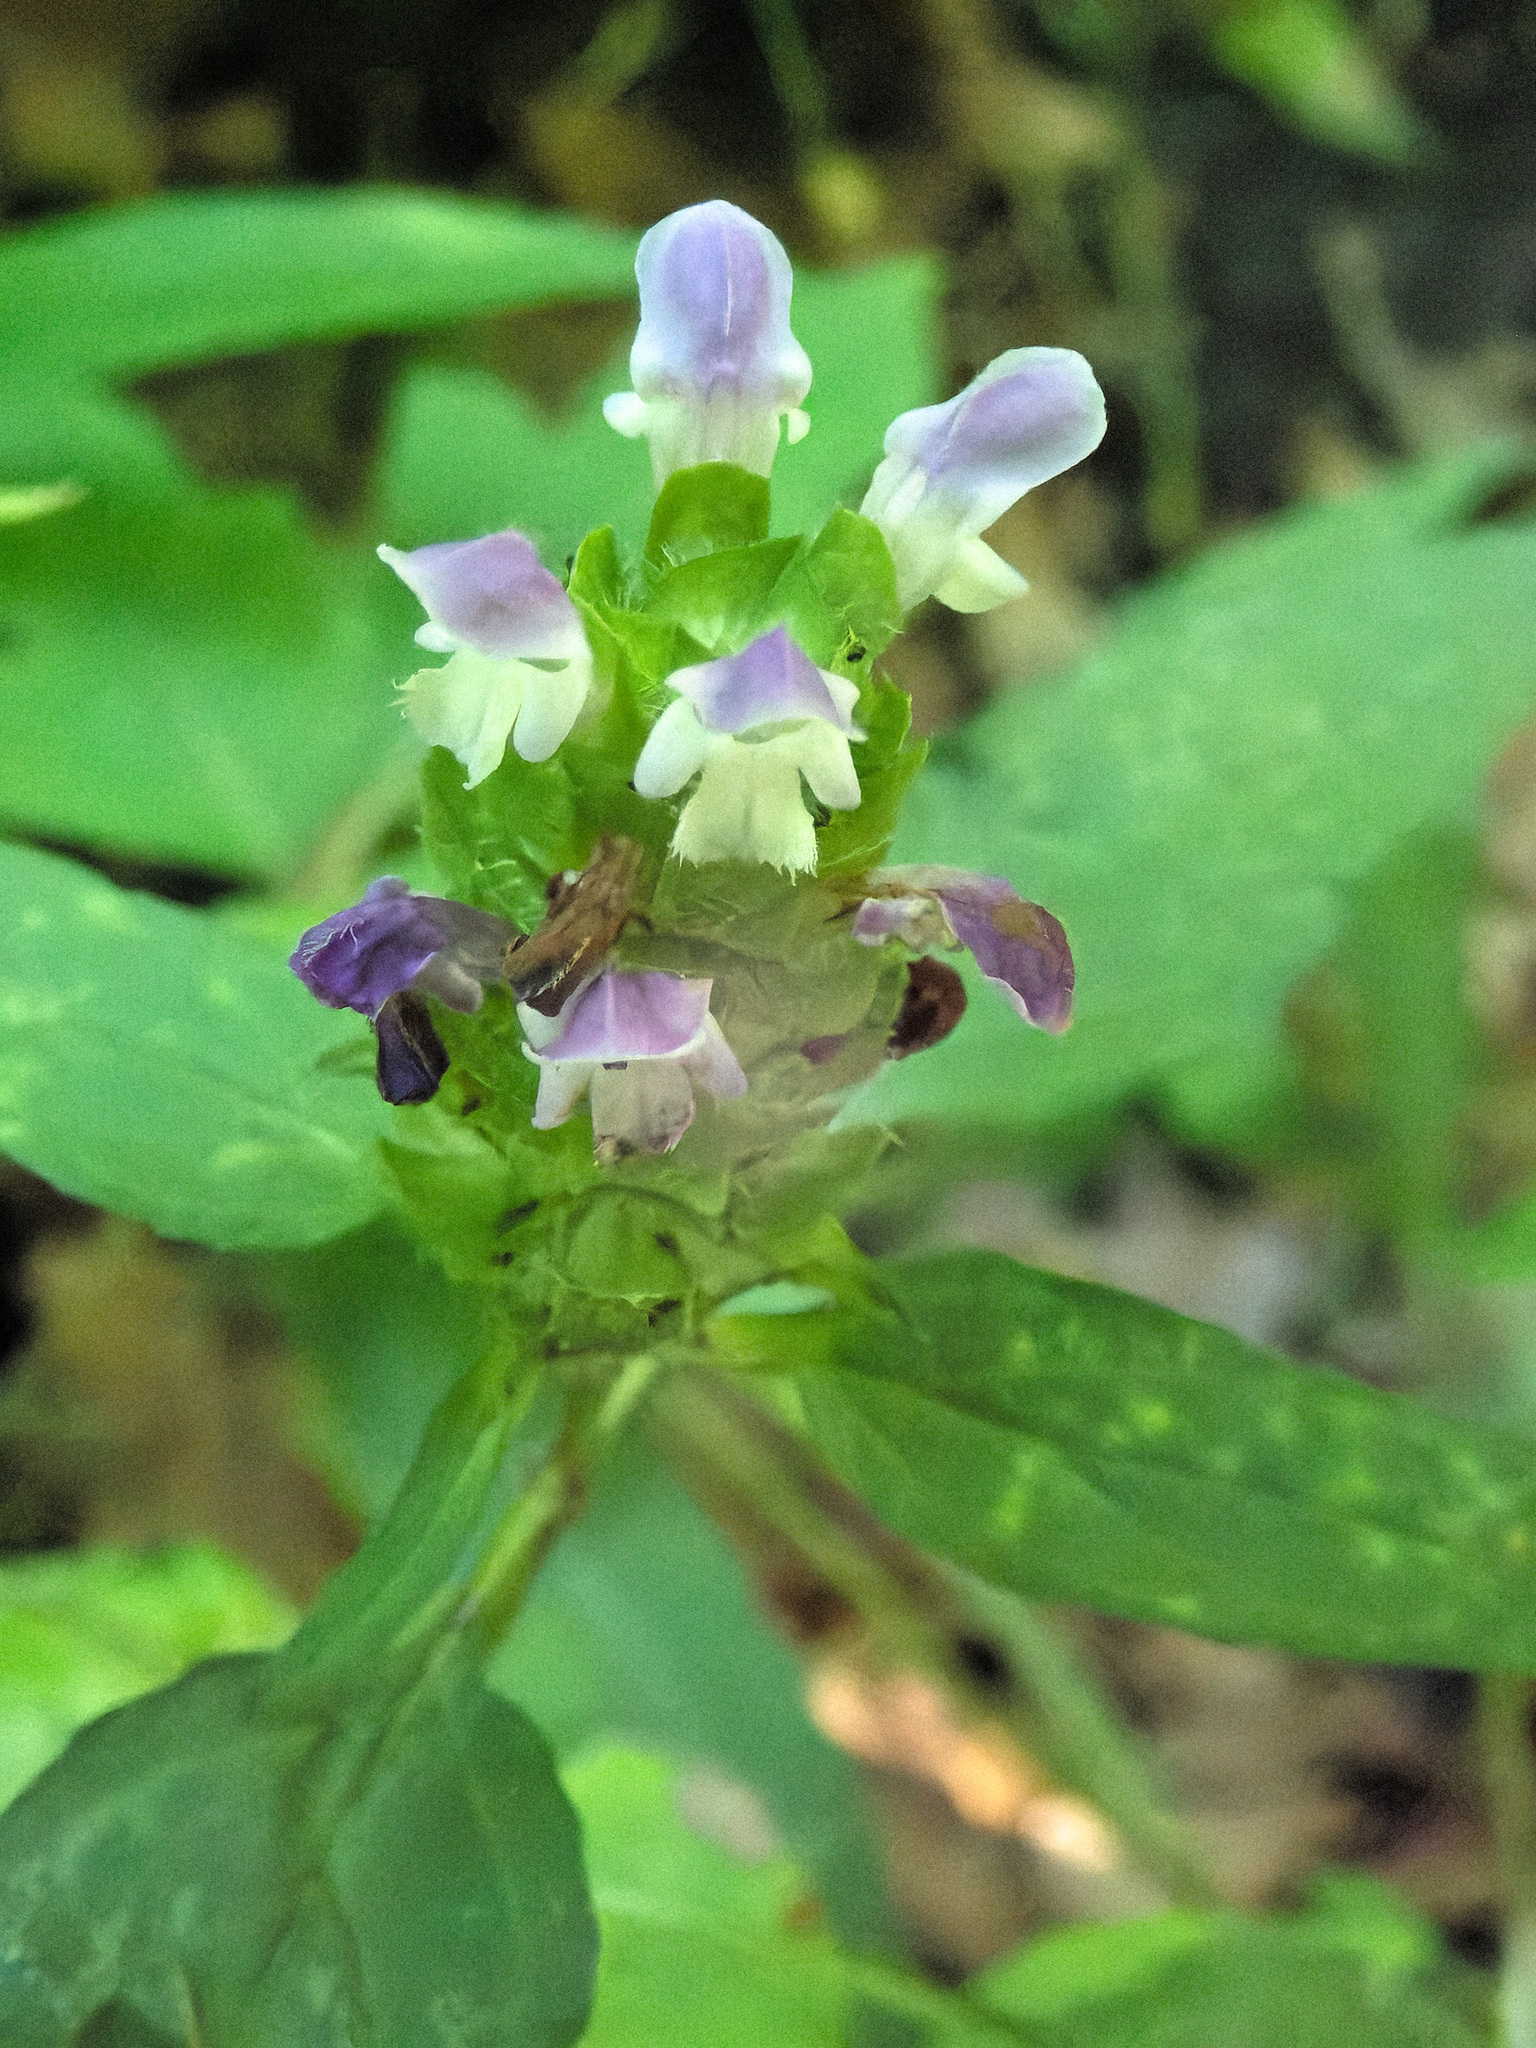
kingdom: Plantae
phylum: Tracheophyta
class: Magnoliopsida
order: Lamiales
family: Lamiaceae
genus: Prunella
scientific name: Prunella vulgaris
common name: Heal-all
